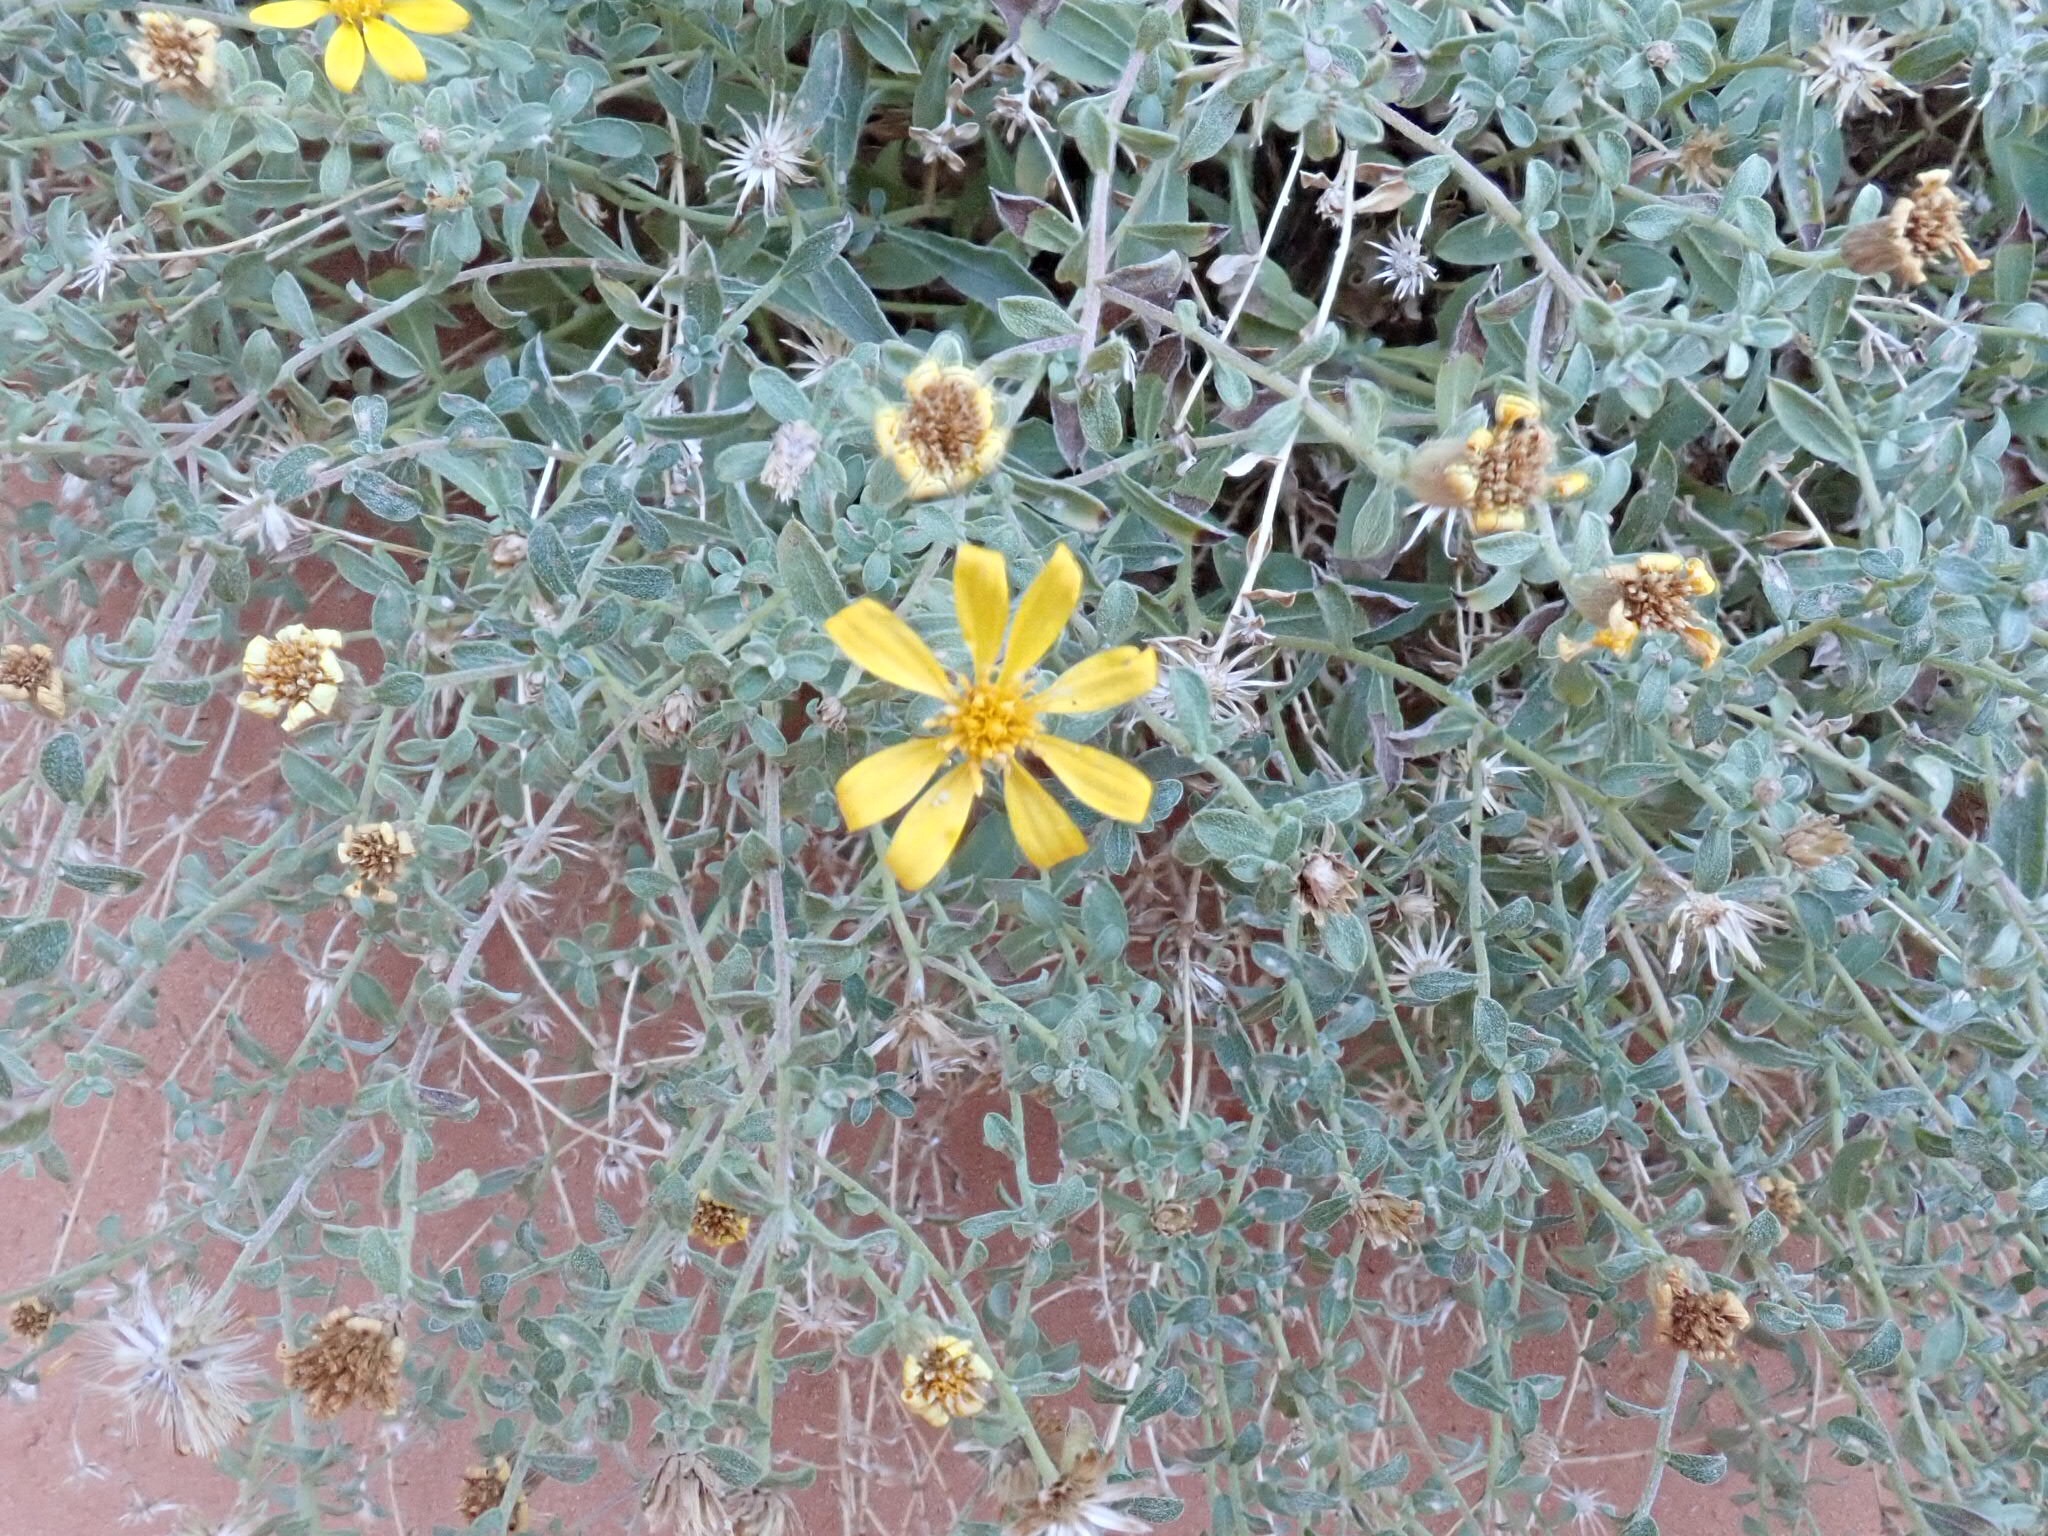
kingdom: Plantae
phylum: Tracheophyta
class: Magnoliopsida
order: Asterales
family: Asteraceae
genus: Heterotheca
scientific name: Heterotheca polothrix
